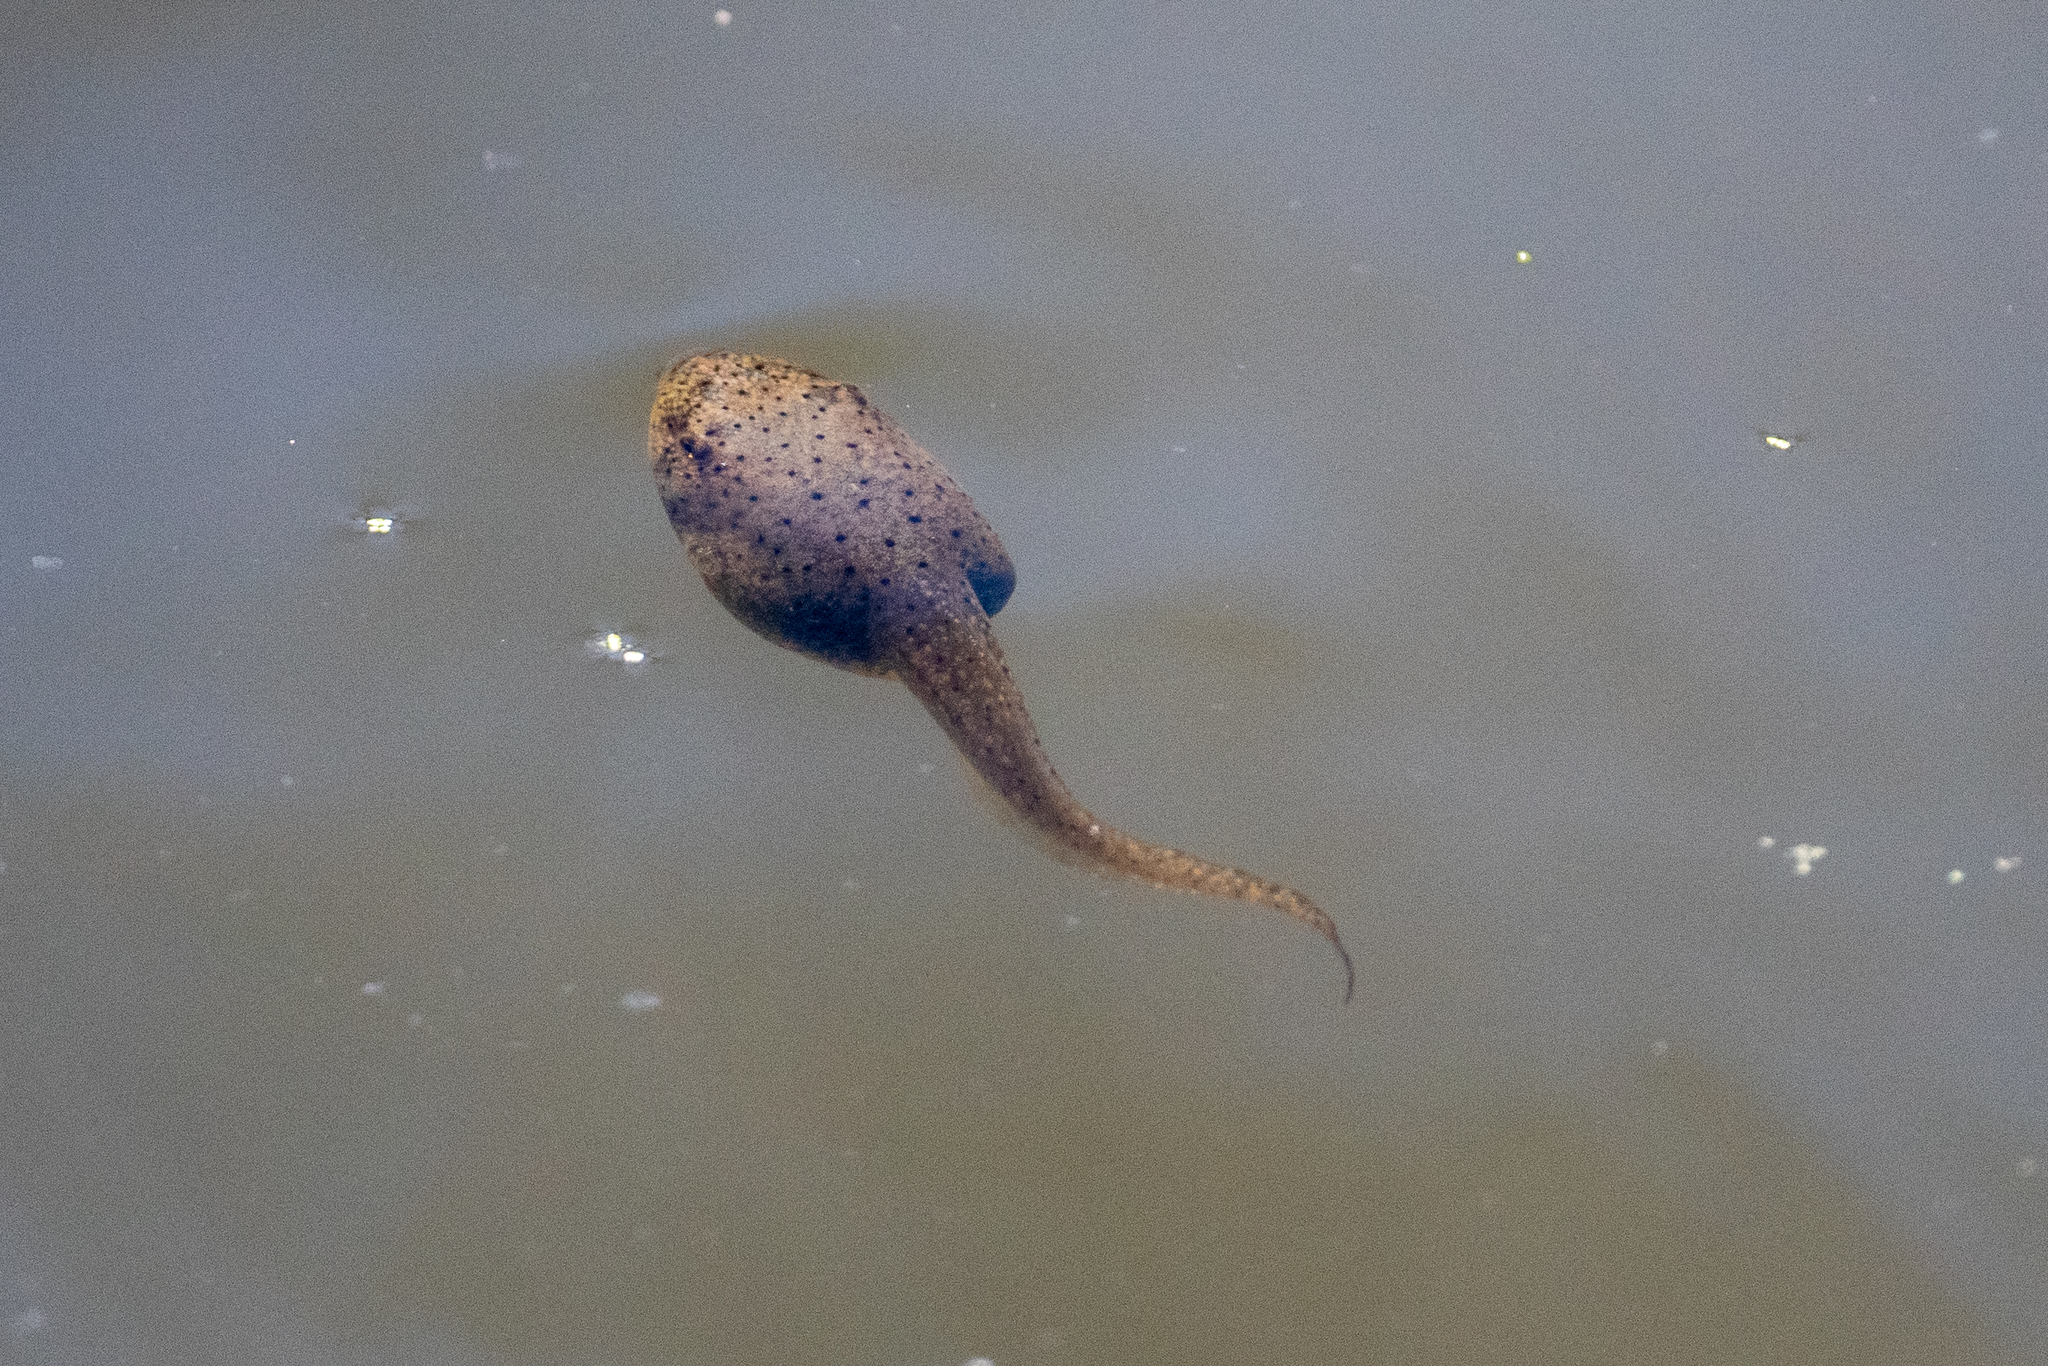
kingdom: Animalia
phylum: Chordata
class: Amphibia
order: Anura
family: Ranidae
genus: Lithobates
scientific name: Lithobates catesbeianus
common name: American bullfrog
